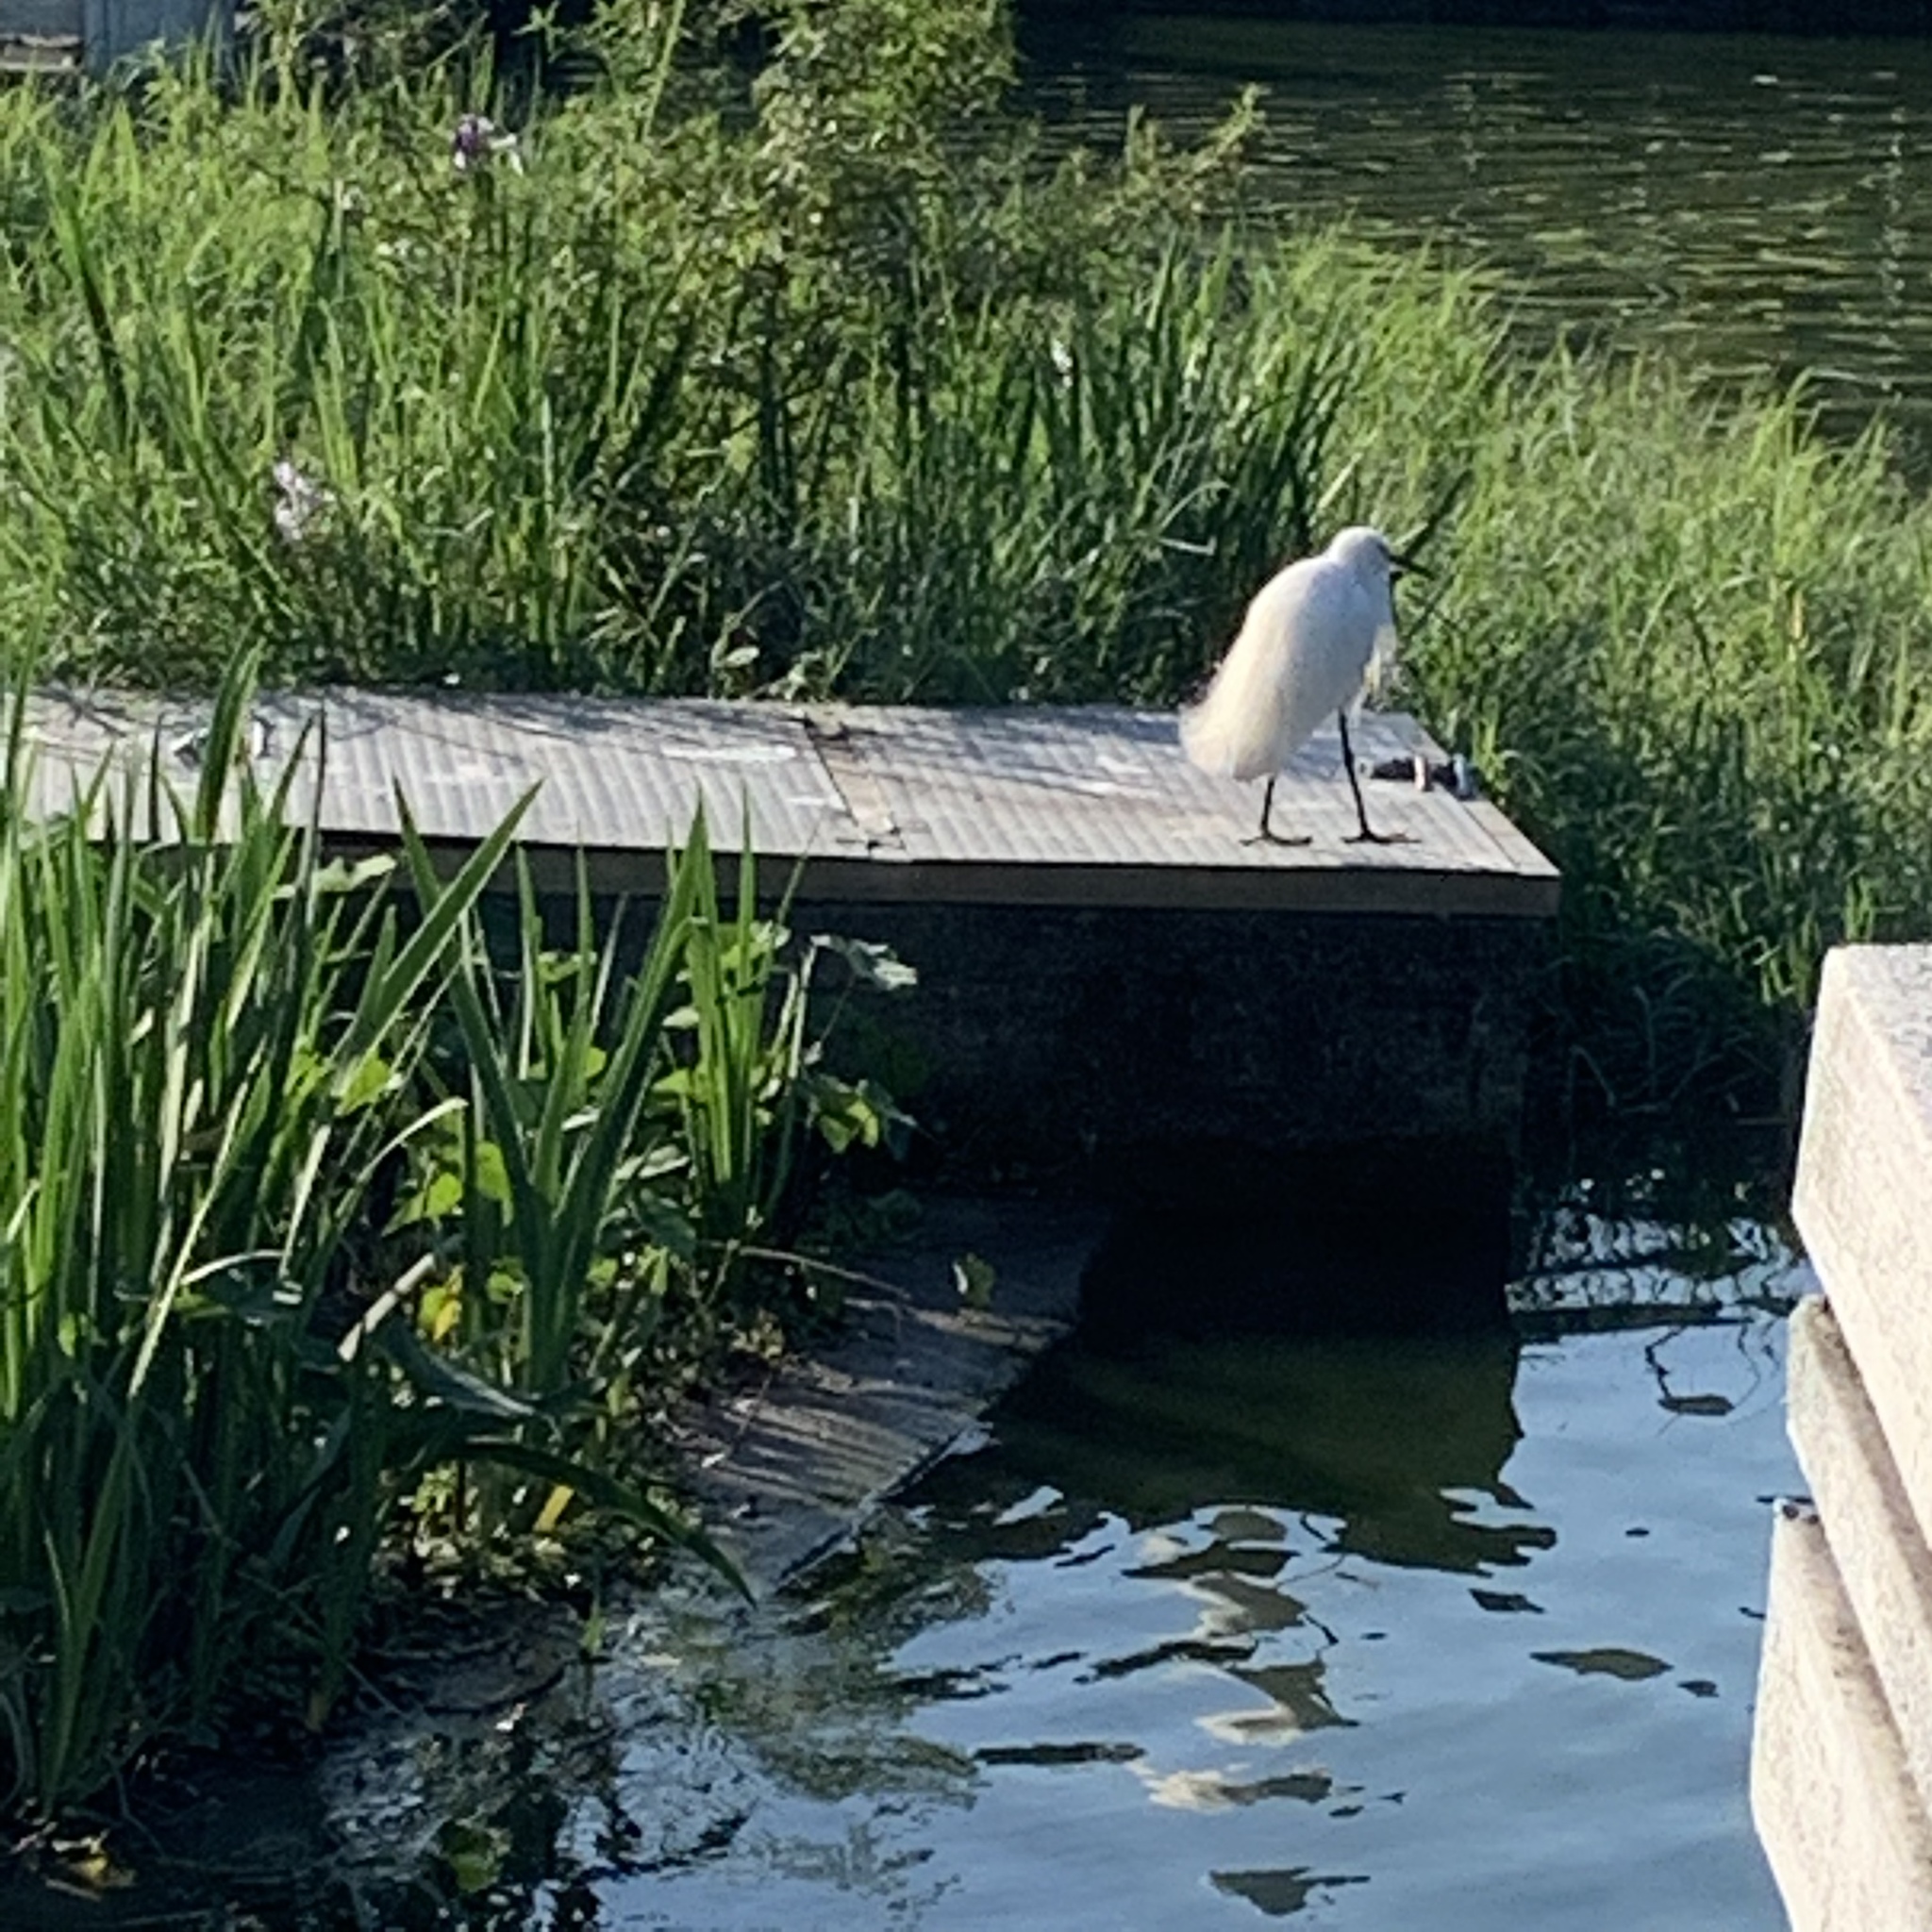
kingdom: Animalia
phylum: Chordata
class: Aves
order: Pelecaniformes
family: Ardeidae
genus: Egretta
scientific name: Egretta garzetta
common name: Little egret
